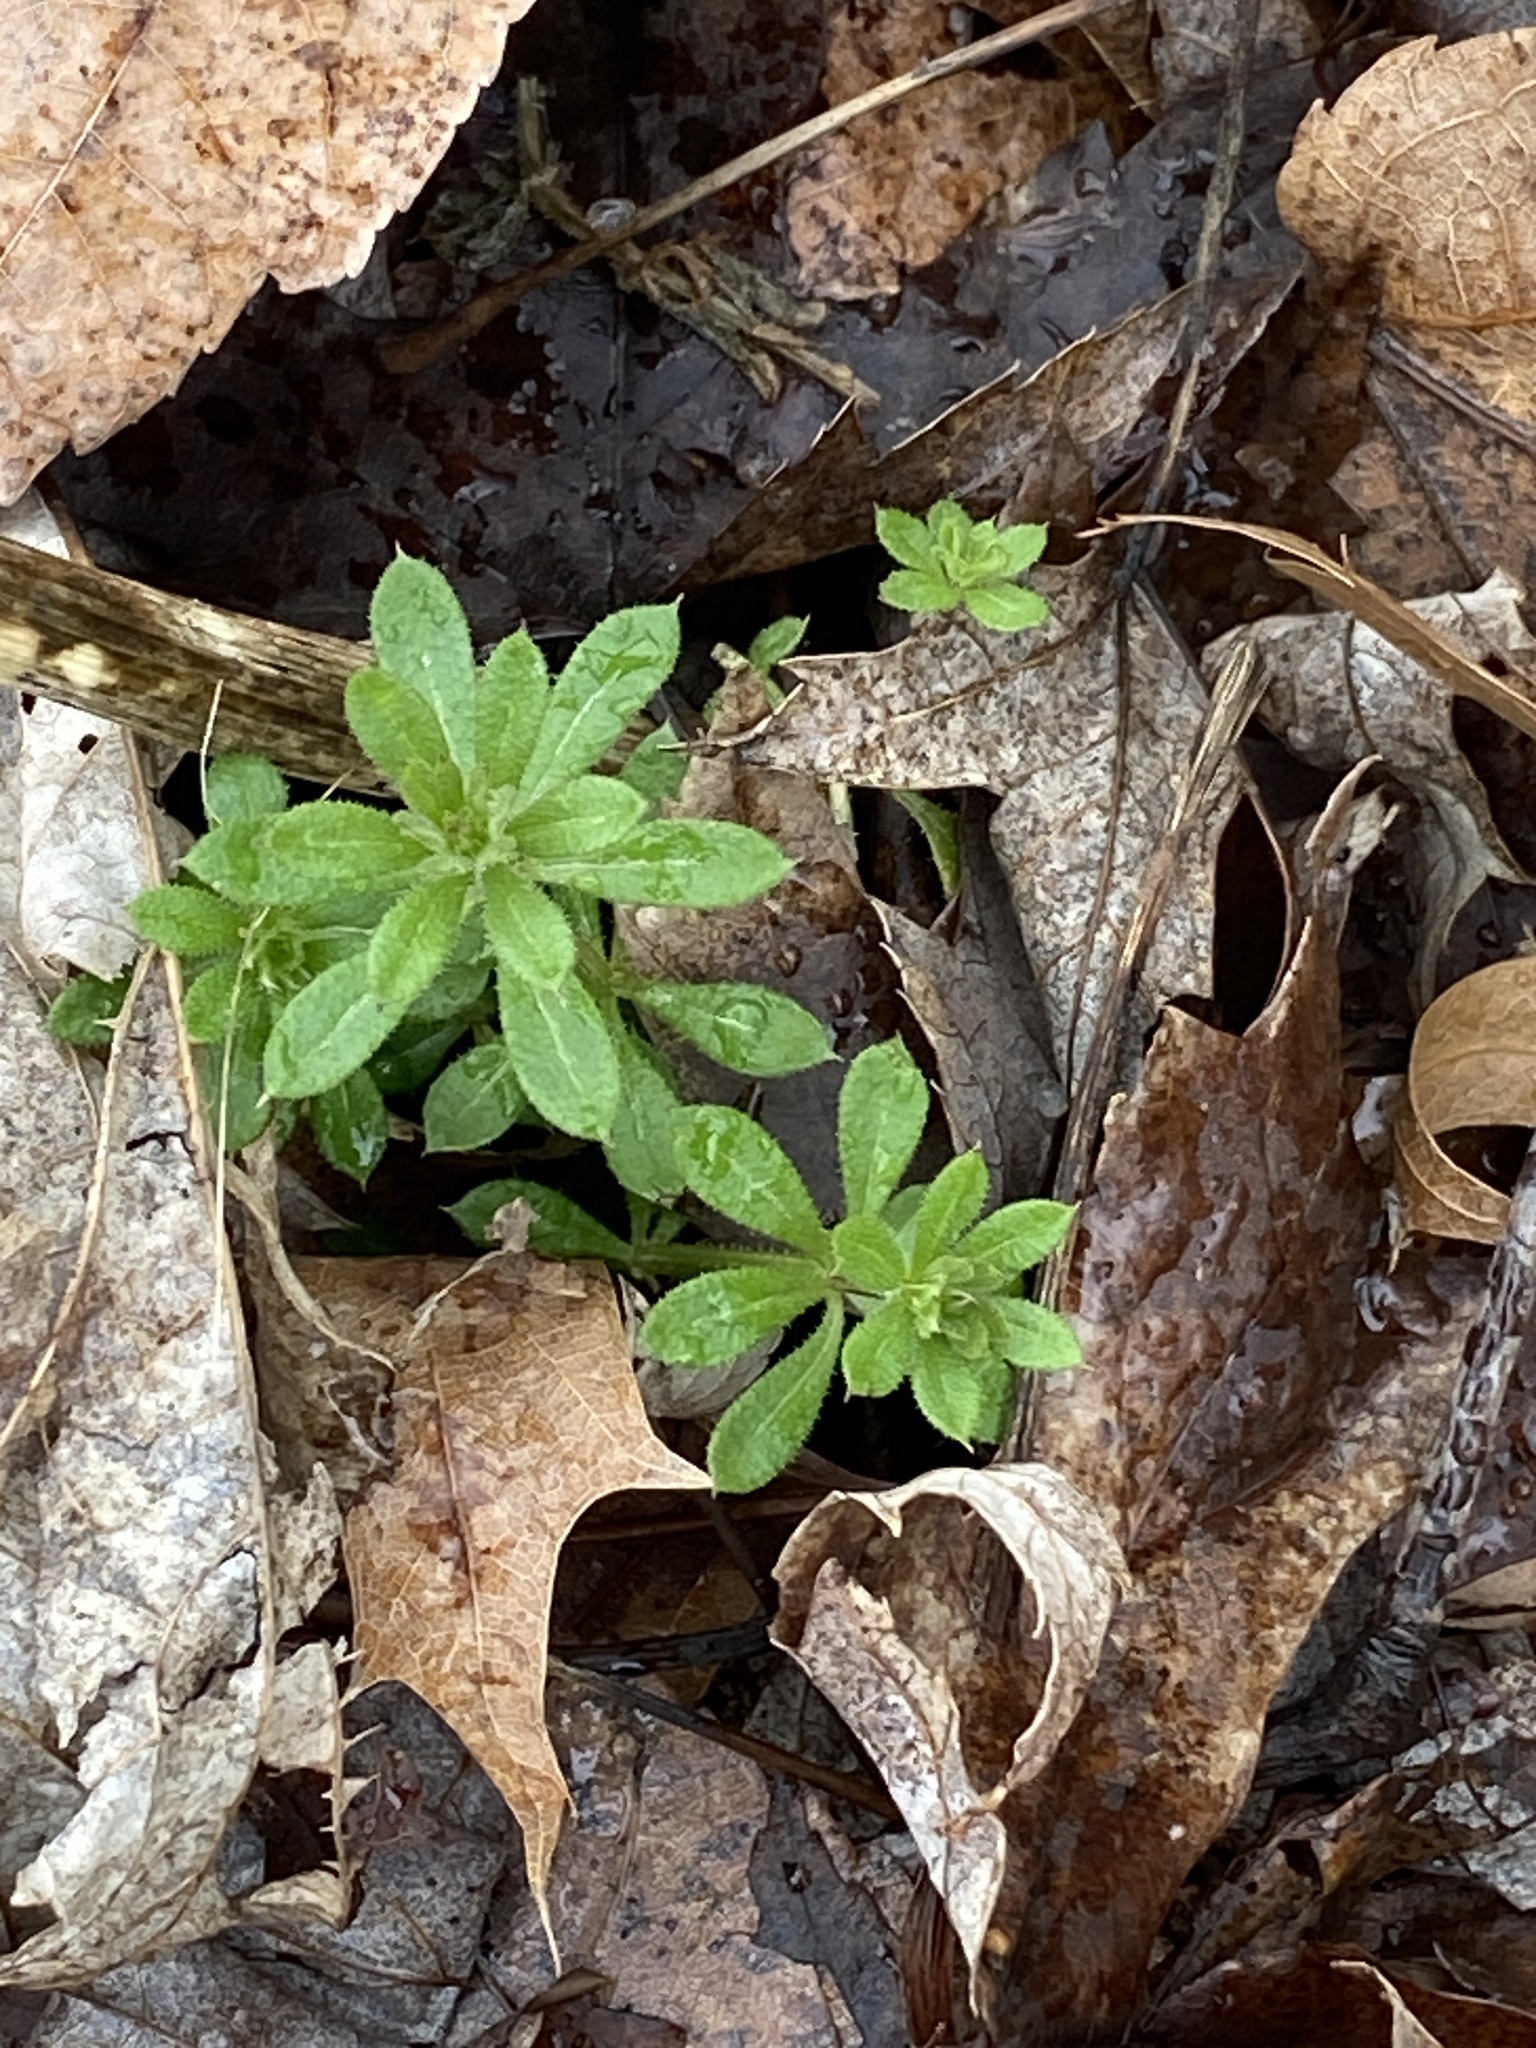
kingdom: Plantae
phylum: Tracheophyta
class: Magnoliopsida
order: Gentianales
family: Rubiaceae
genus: Galium
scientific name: Galium aparine
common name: Cleavers
